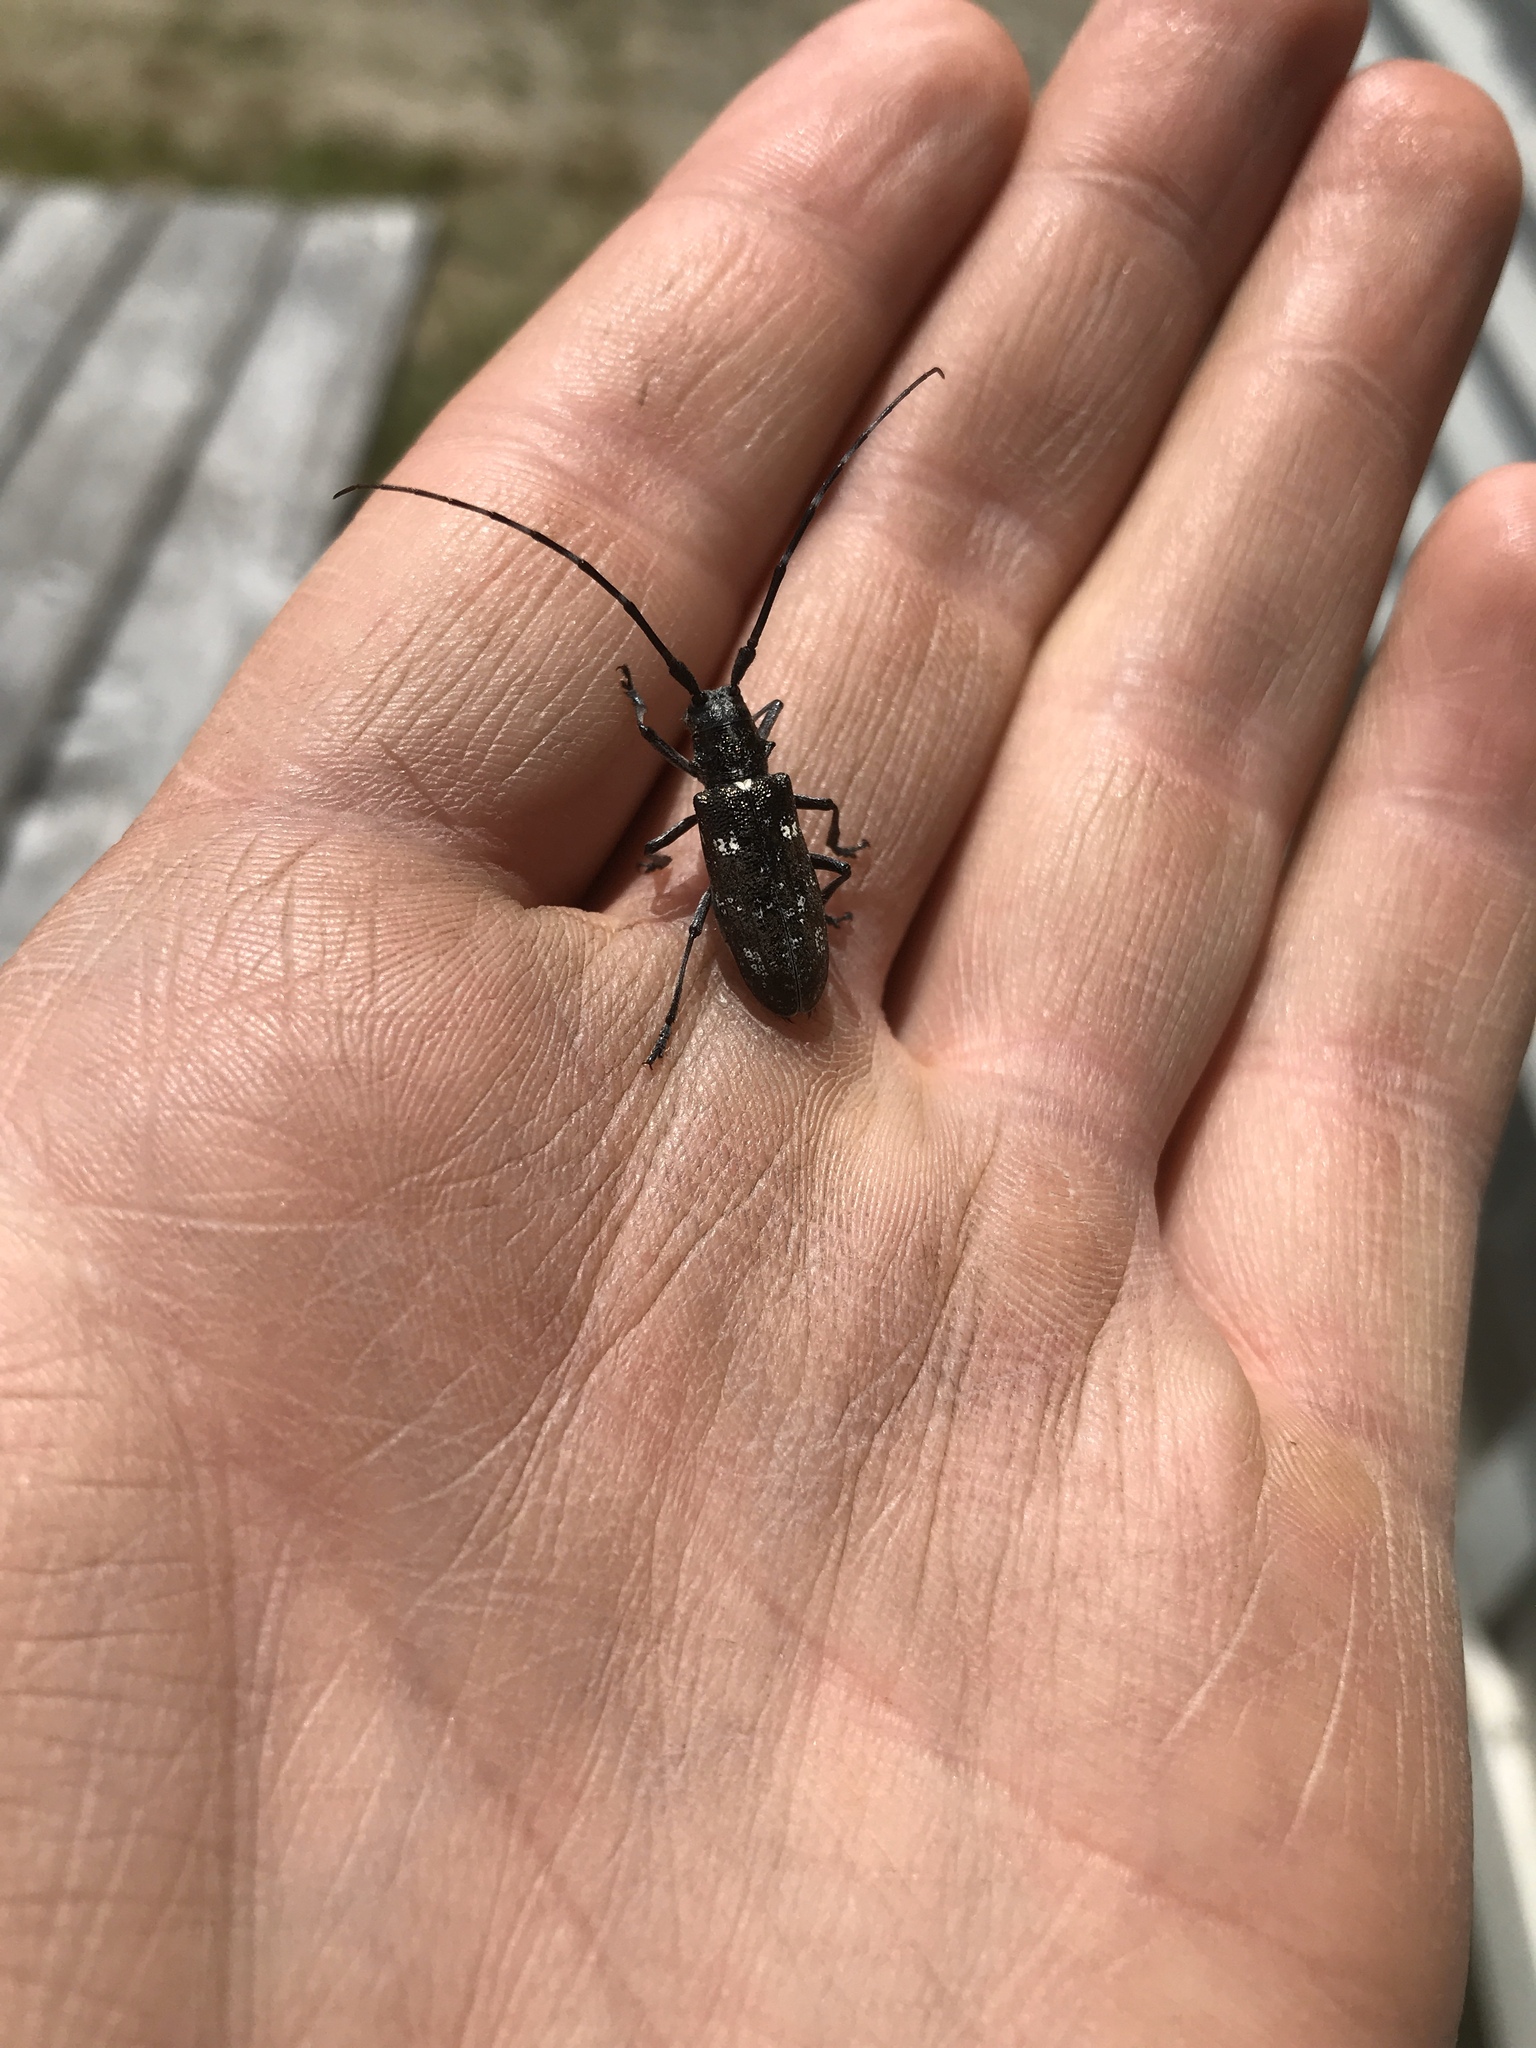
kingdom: Animalia
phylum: Arthropoda
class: Insecta
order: Coleoptera
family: Cerambycidae
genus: Monochamus
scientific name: Monochamus scutellatus
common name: White-spotted sawyer beetle
